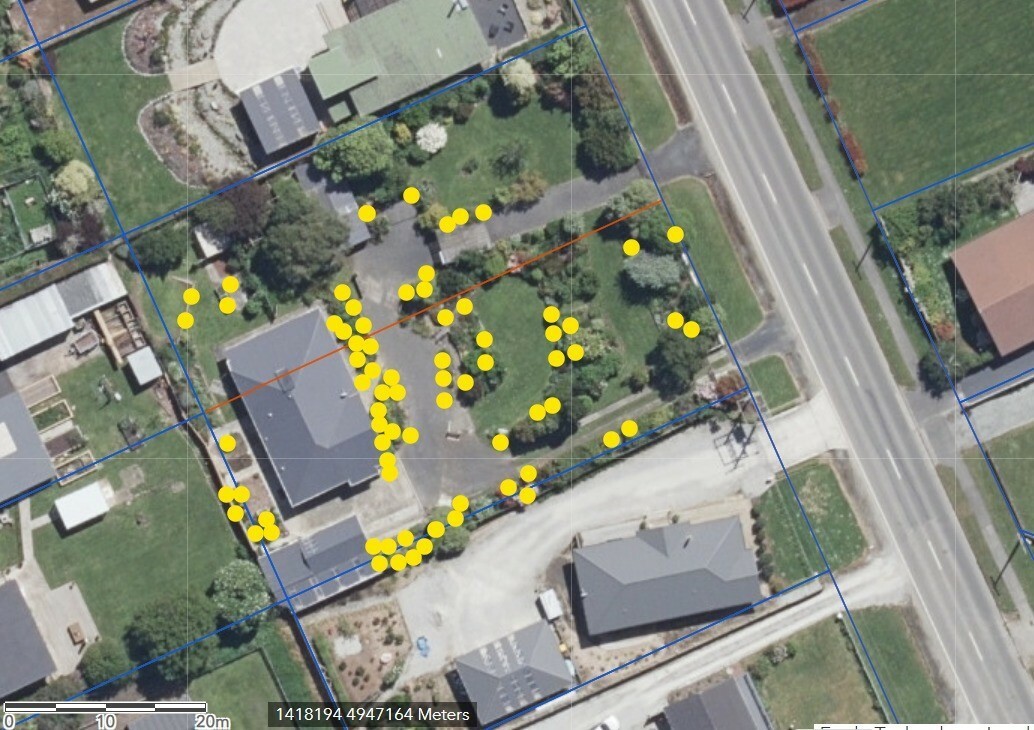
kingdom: Animalia
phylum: Chordata
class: Squamata
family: Scincidae
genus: Oligosoma
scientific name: Oligosoma polychroma
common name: Common new zealand skink
